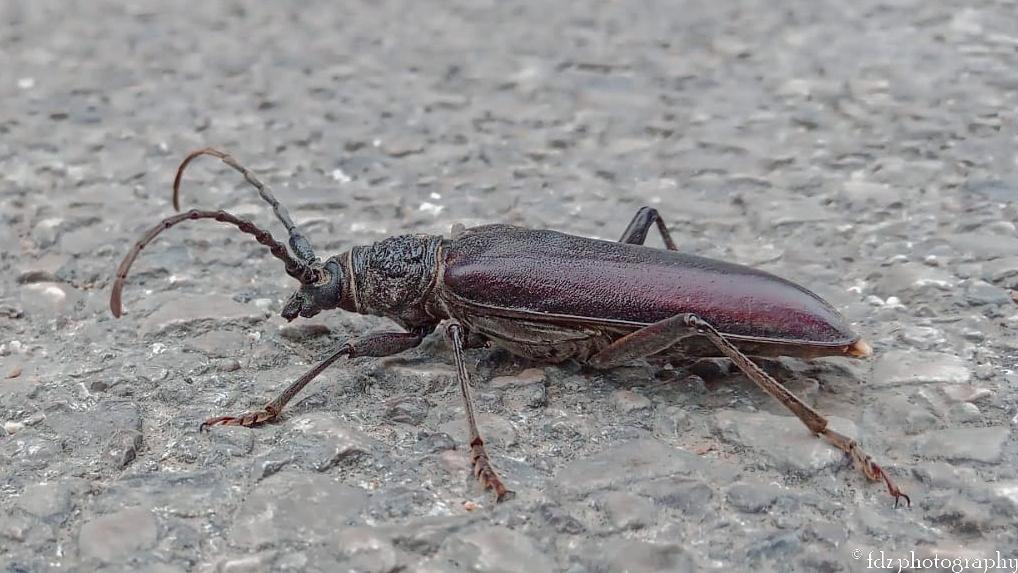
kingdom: Animalia
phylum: Arthropoda
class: Insecta
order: Coleoptera
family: Cerambycidae
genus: Cerambyx
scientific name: Cerambyx welensii
